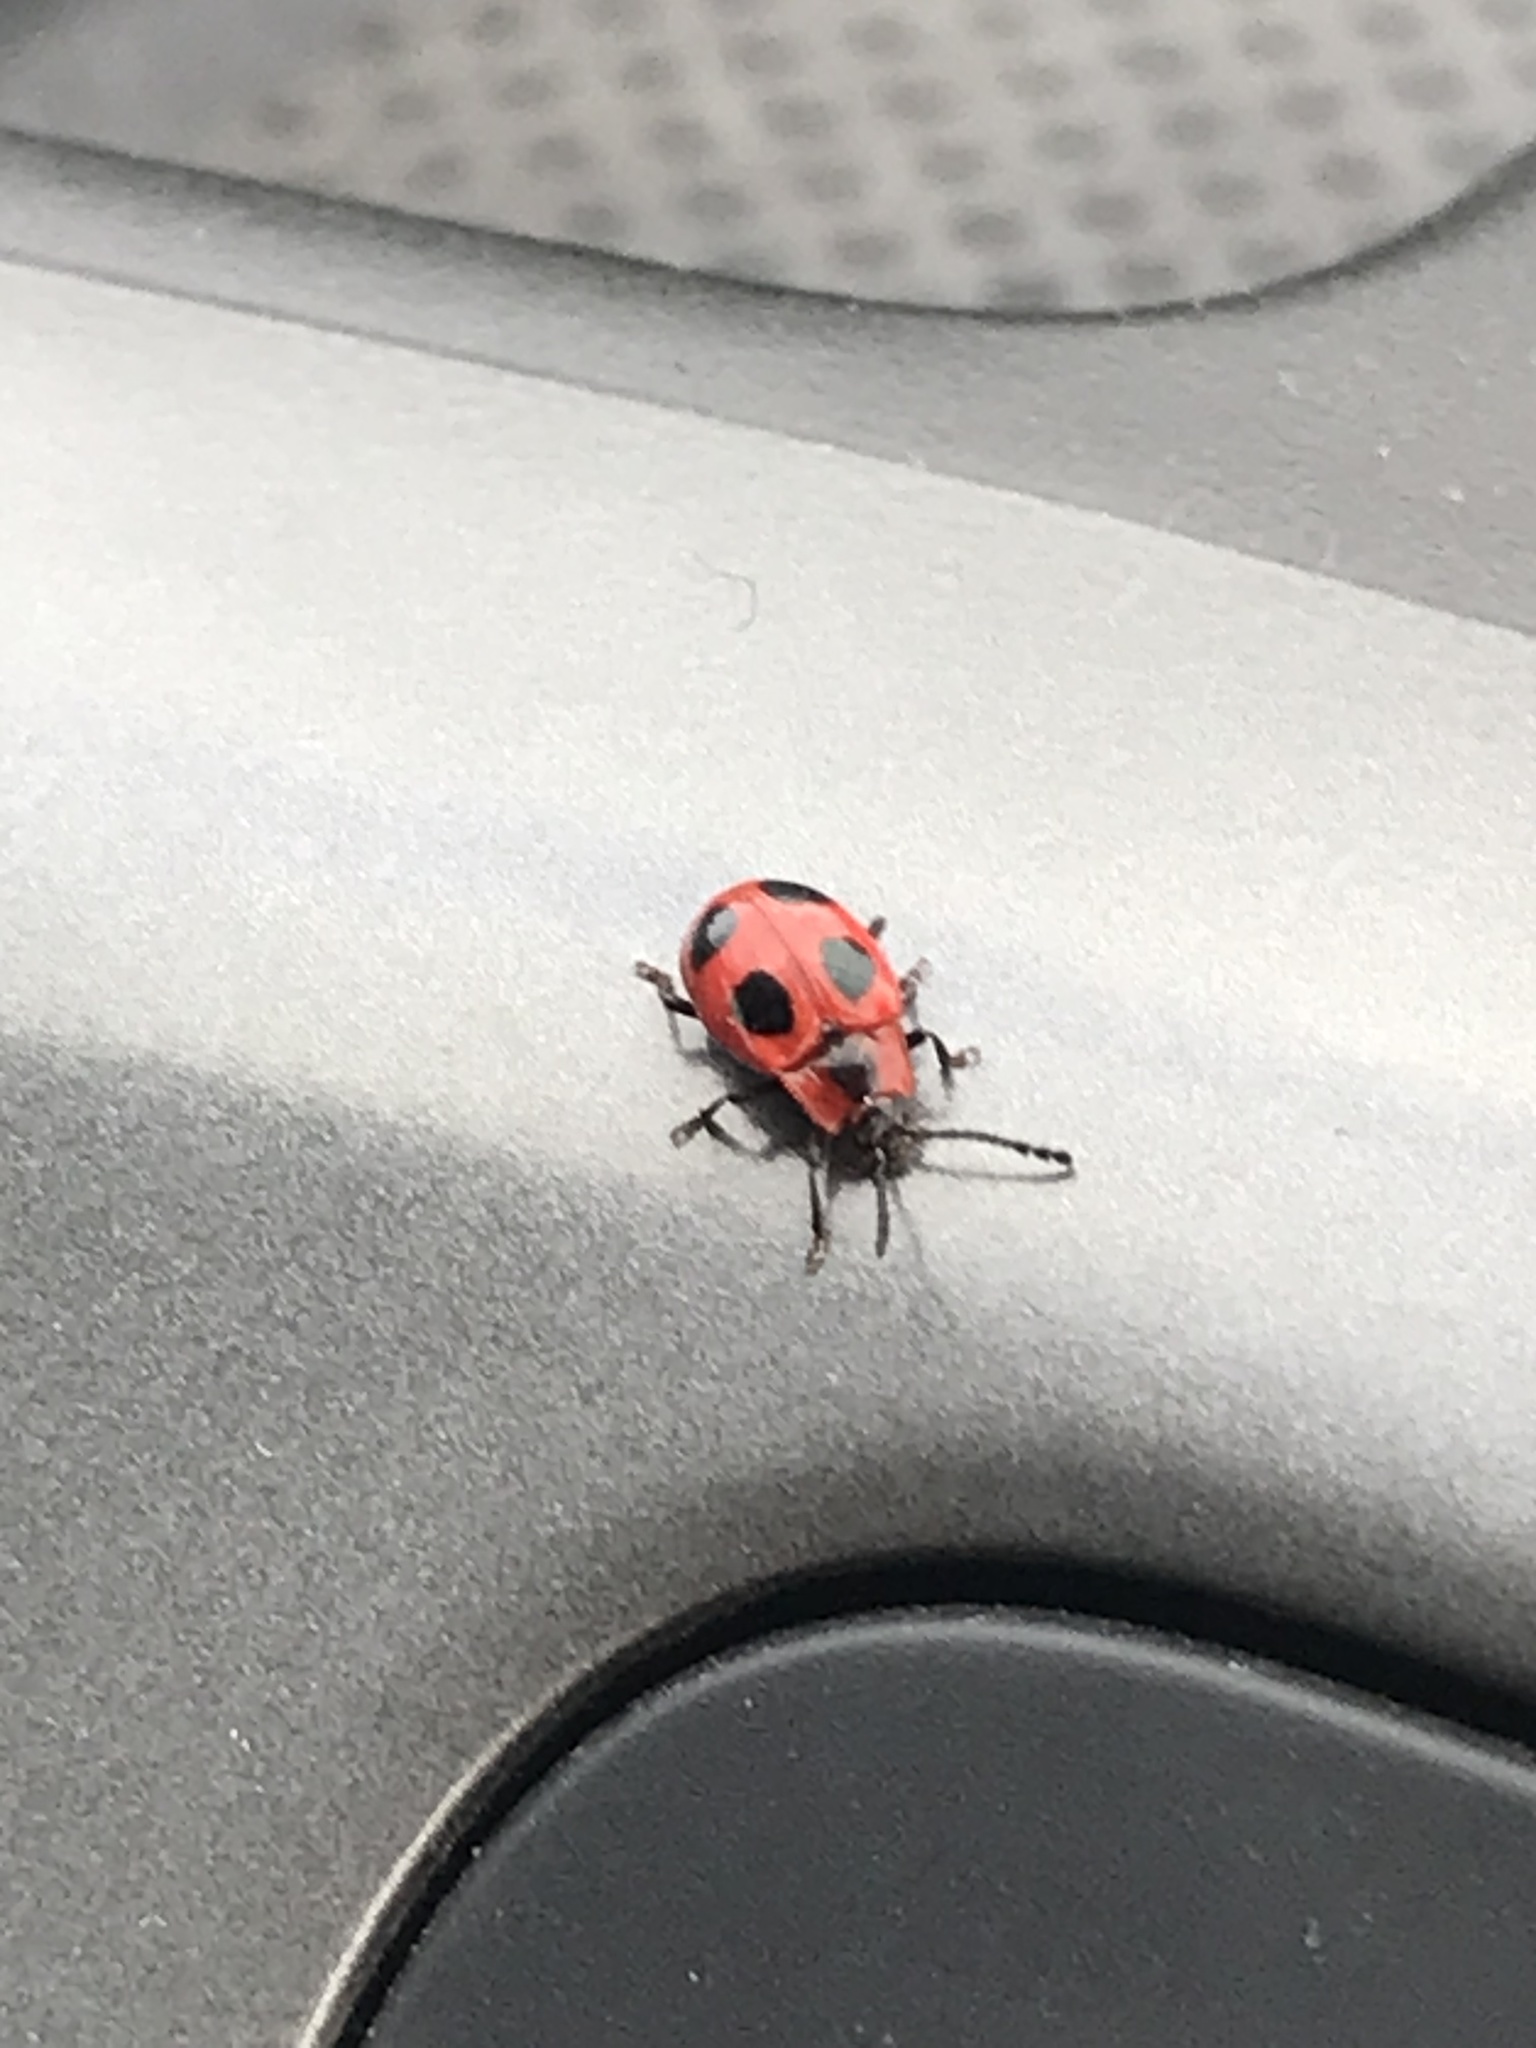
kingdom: Animalia
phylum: Arthropoda
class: Insecta
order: Coleoptera
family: Endomychidae
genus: Endomychus
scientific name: Endomychus coccineus
